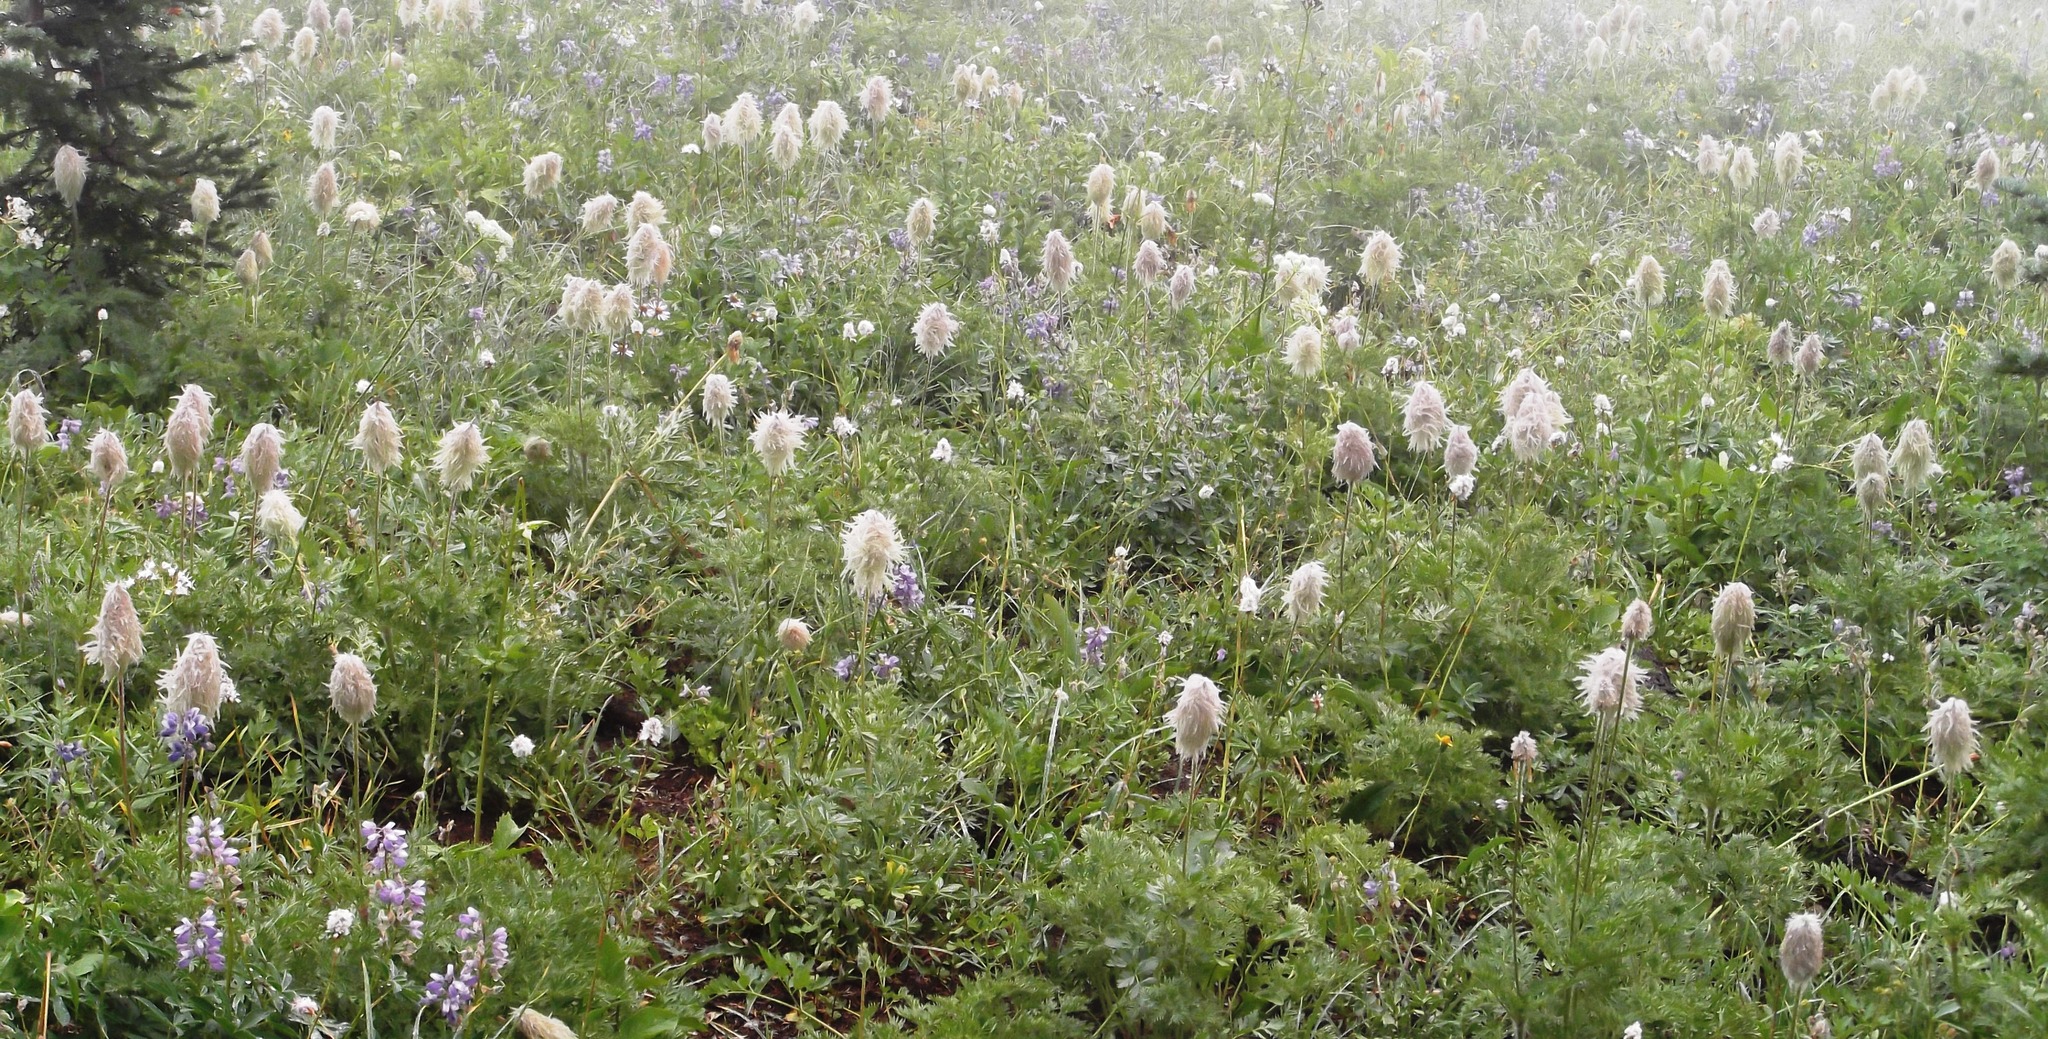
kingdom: Plantae
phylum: Tracheophyta
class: Magnoliopsida
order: Ranunculales
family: Ranunculaceae
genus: Pulsatilla
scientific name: Pulsatilla occidentalis
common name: Mountain pasqueflower
